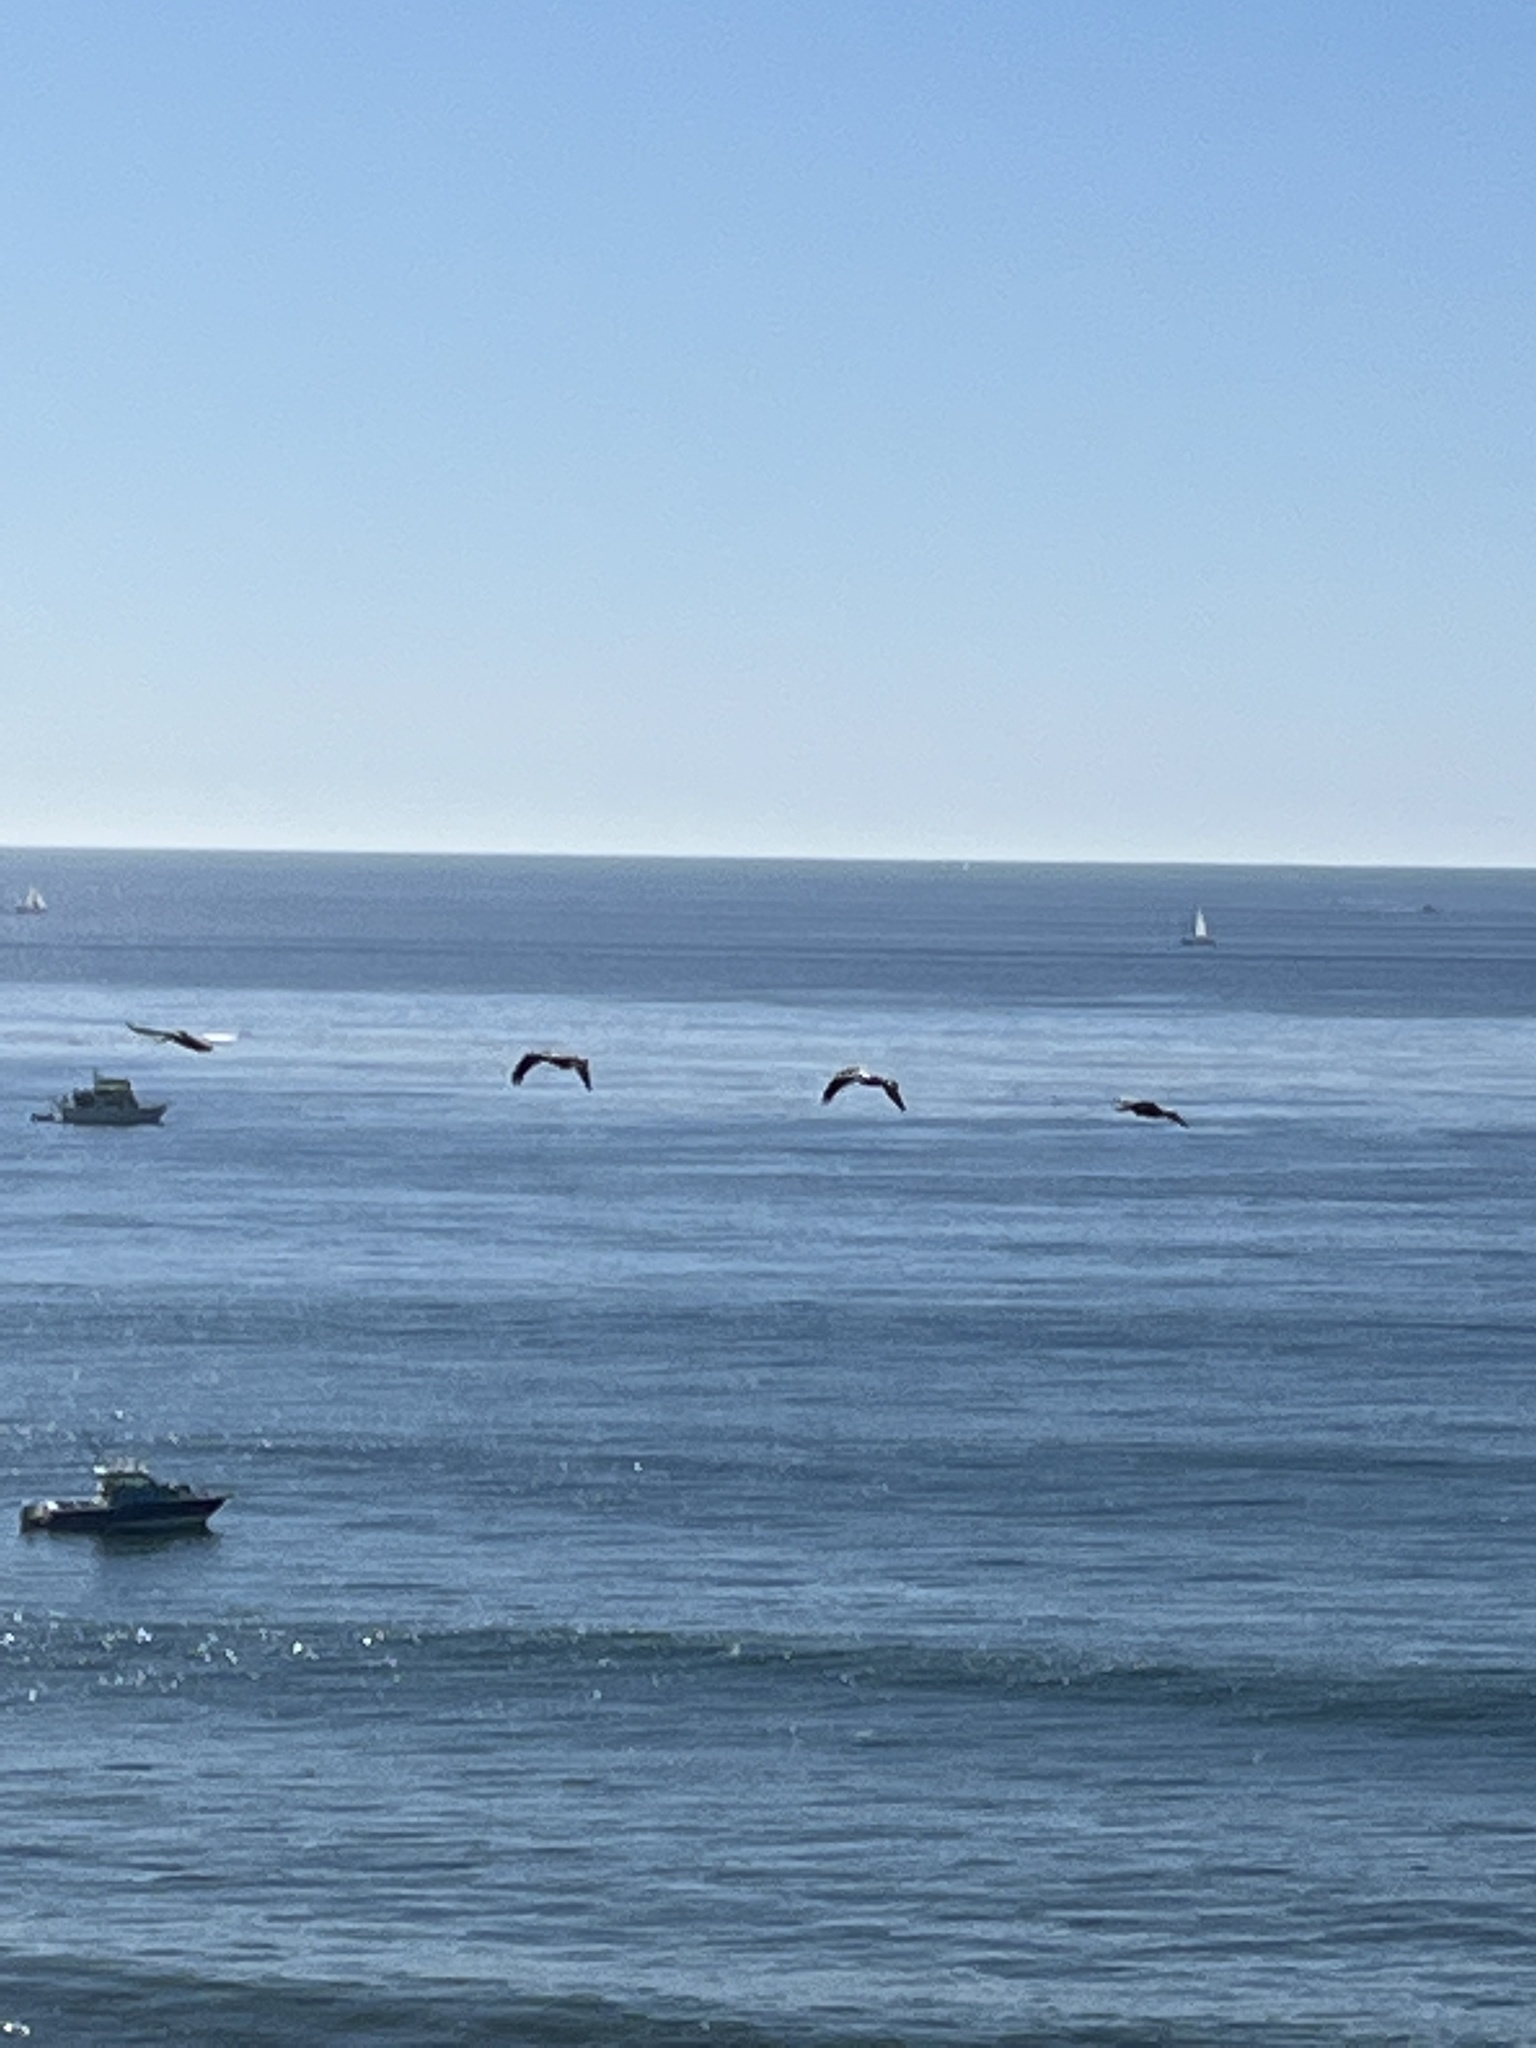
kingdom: Animalia
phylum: Chordata
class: Aves
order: Pelecaniformes
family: Pelecanidae
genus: Pelecanus
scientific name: Pelecanus occidentalis
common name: Brown pelican
